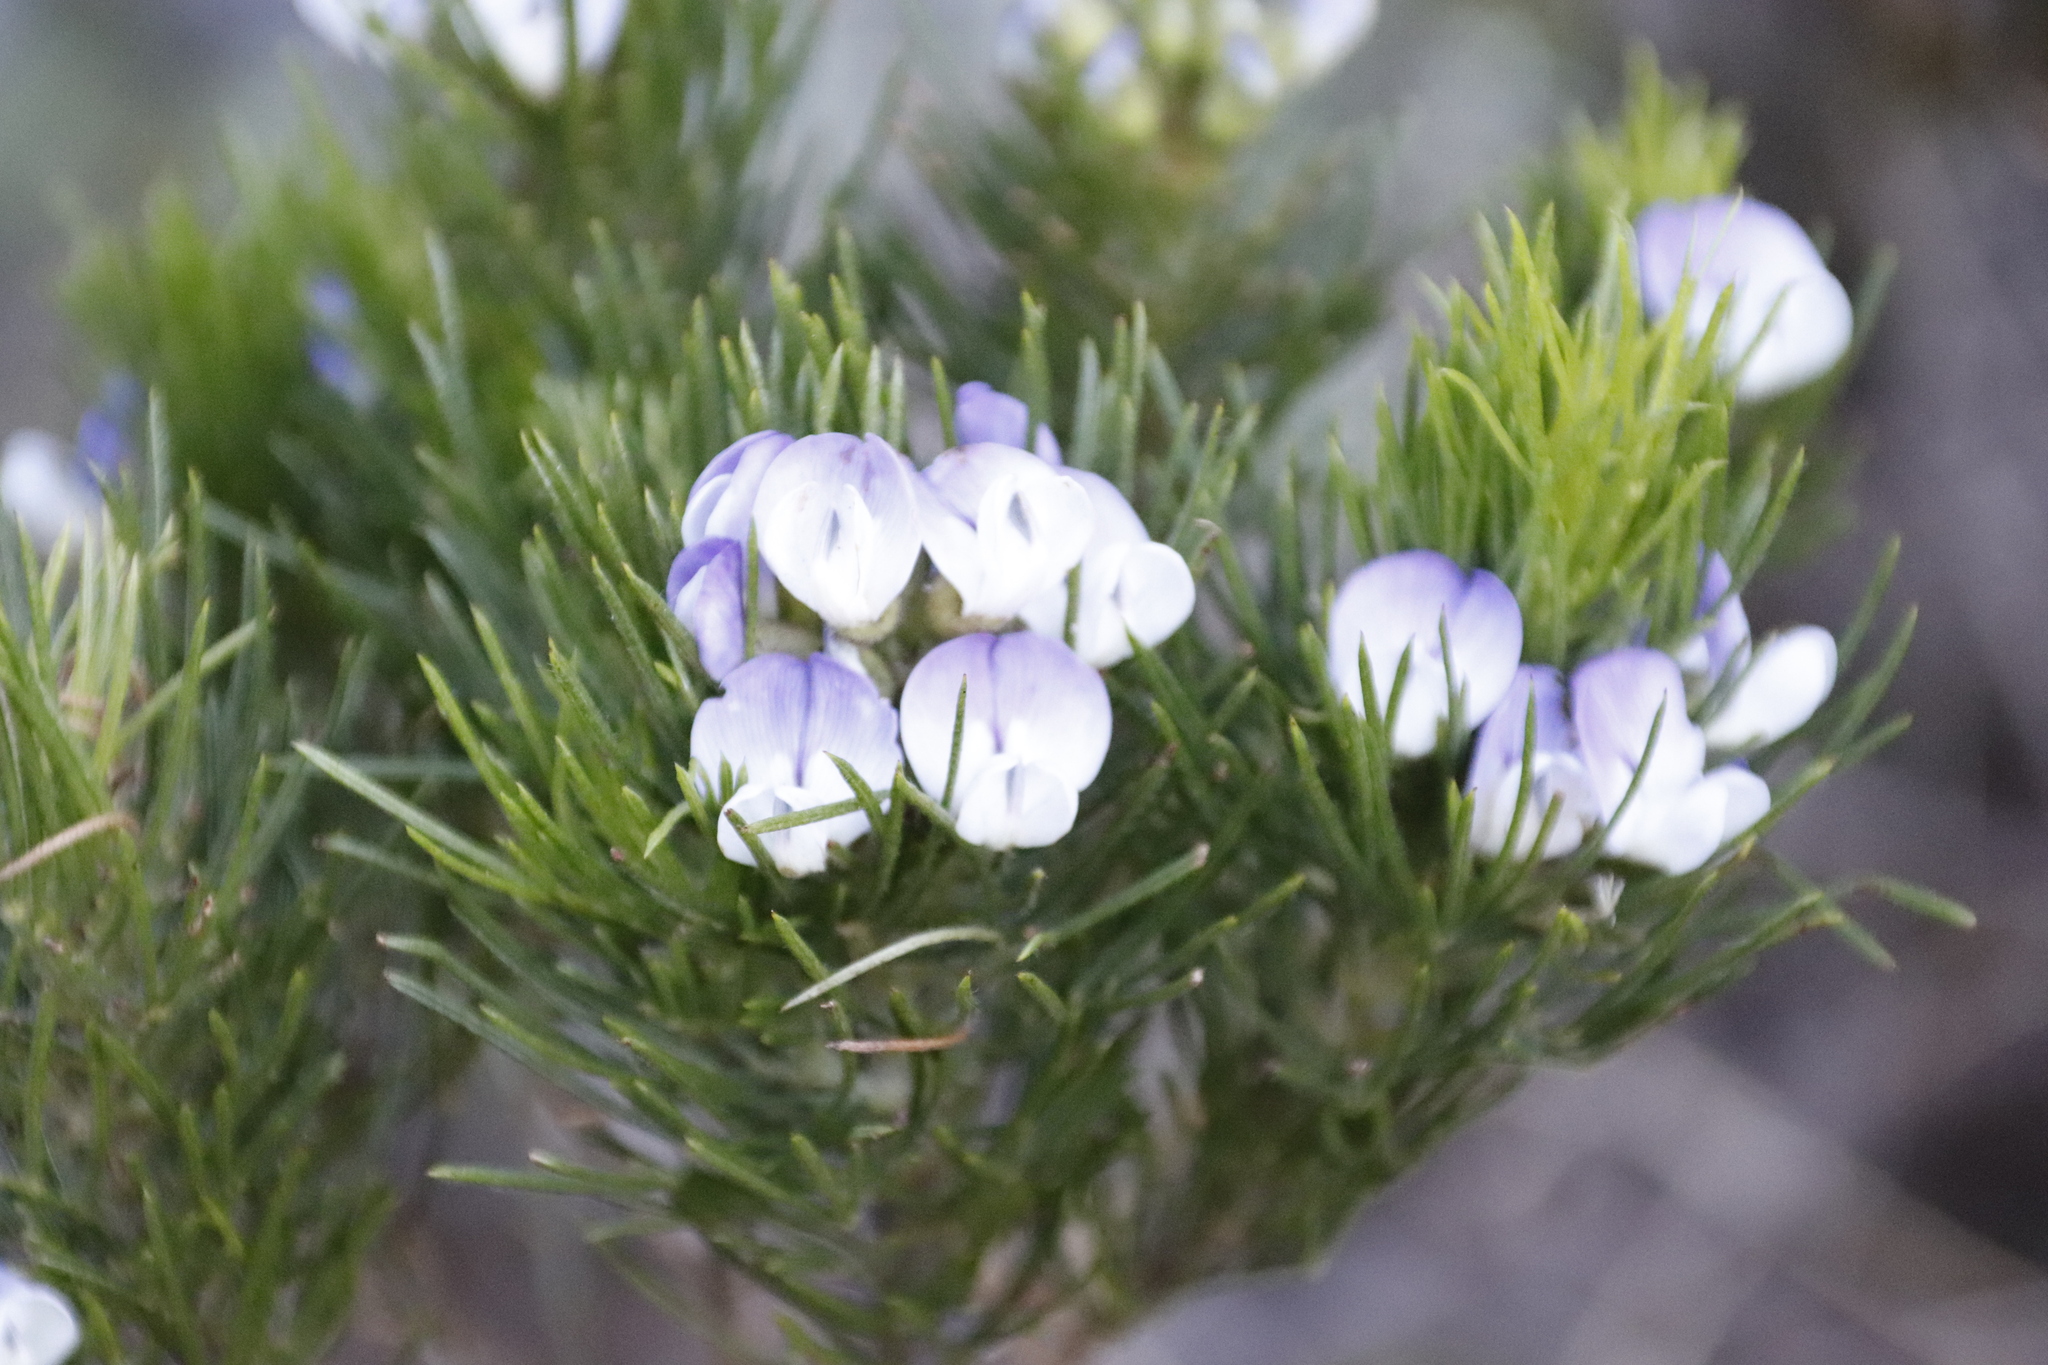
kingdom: Plantae
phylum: Tracheophyta
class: Magnoliopsida
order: Fabales
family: Fabaceae
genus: Psoralea
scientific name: Psoralea pinnata
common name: African scurfpea
